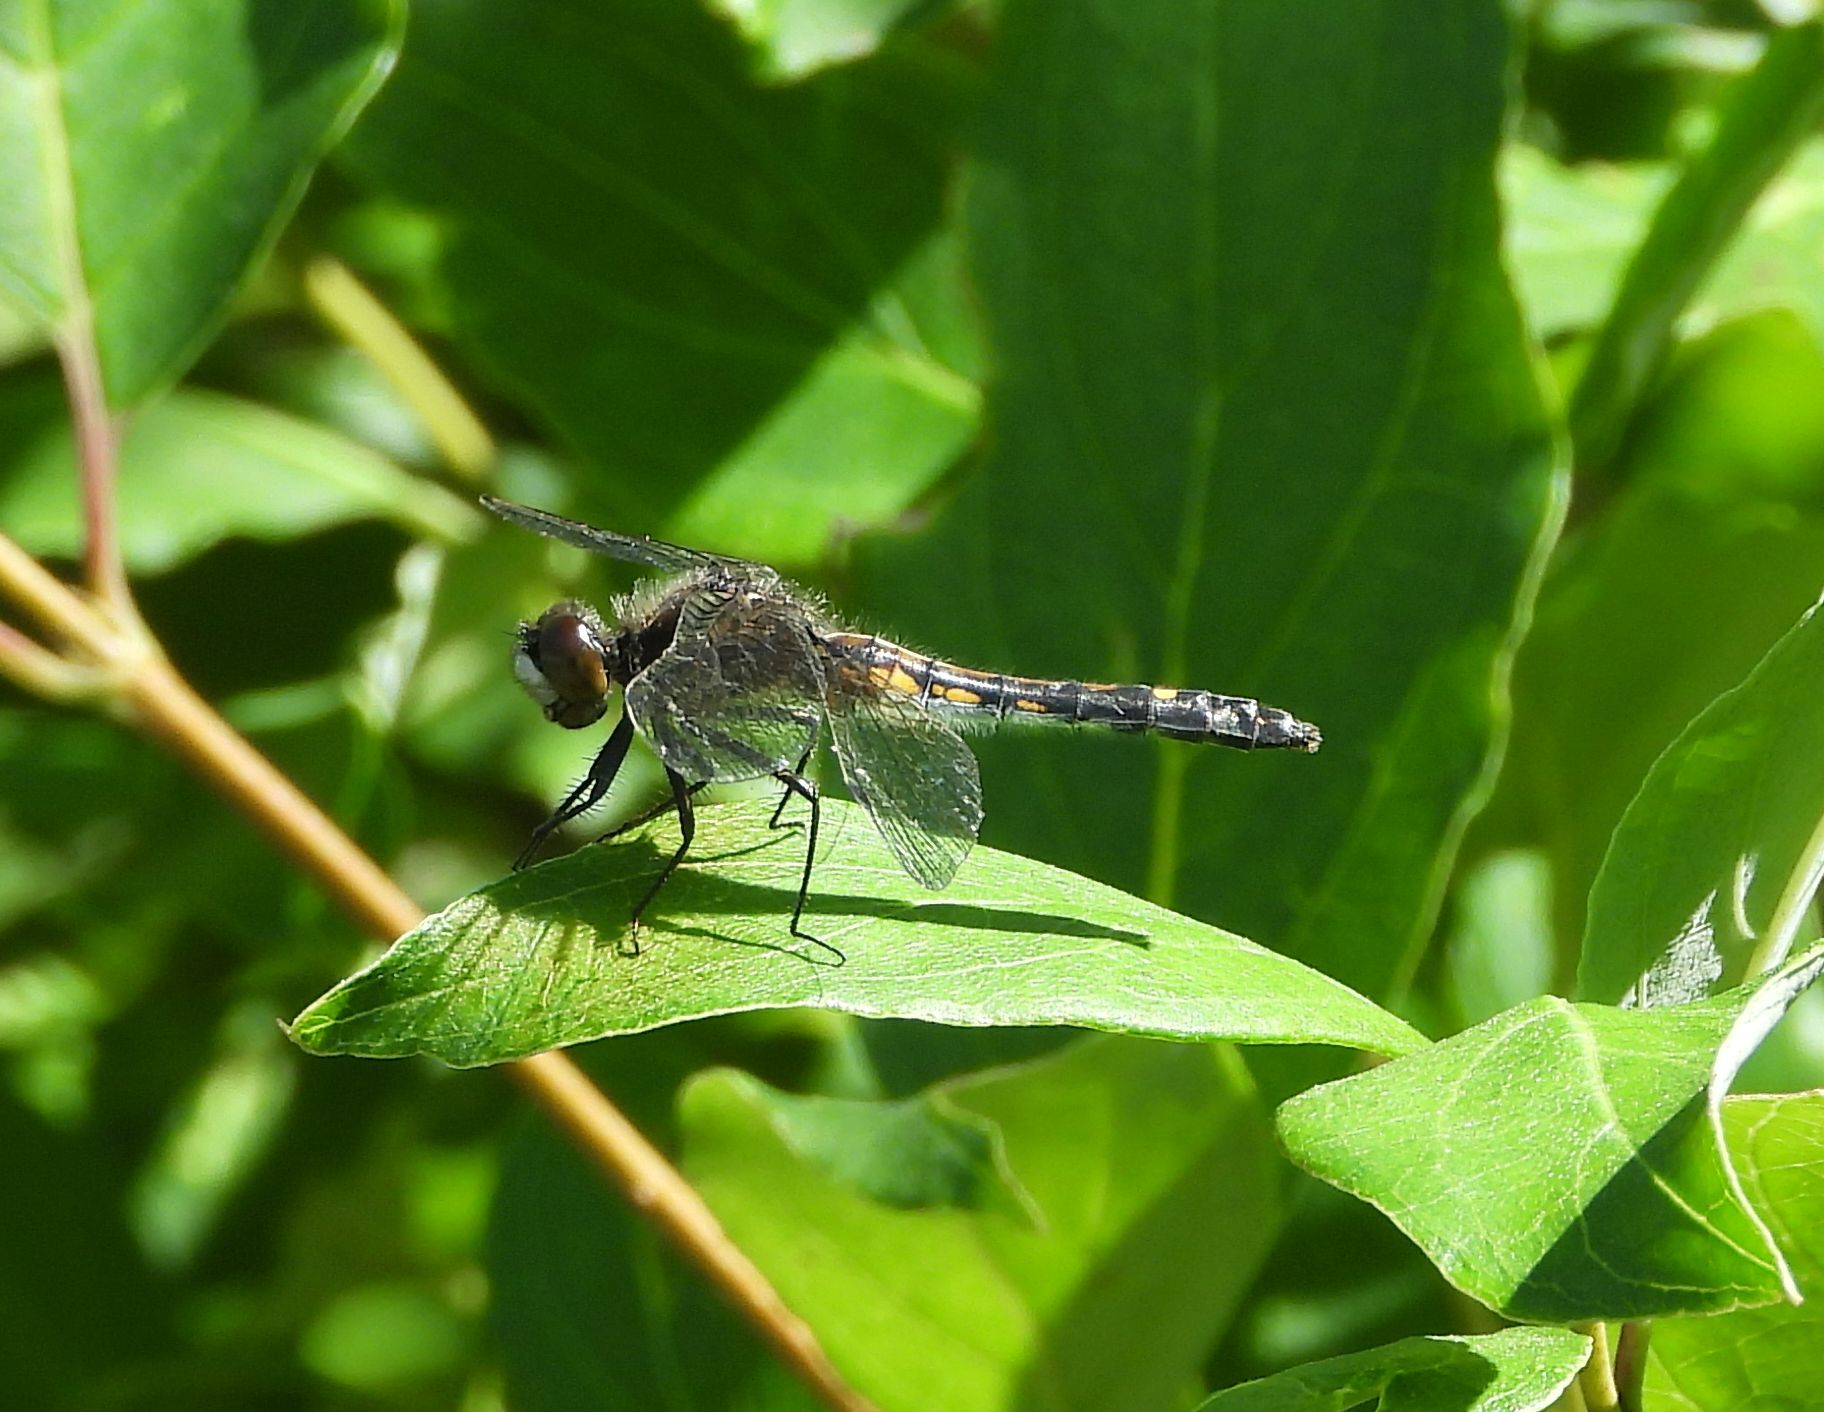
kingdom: Animalia
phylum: Arthropoda
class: Insecta
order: Odonata
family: Libellulidae
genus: Leucorrhinia
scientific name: Leucorrhinia intacta
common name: Dot-tailed whiteface
